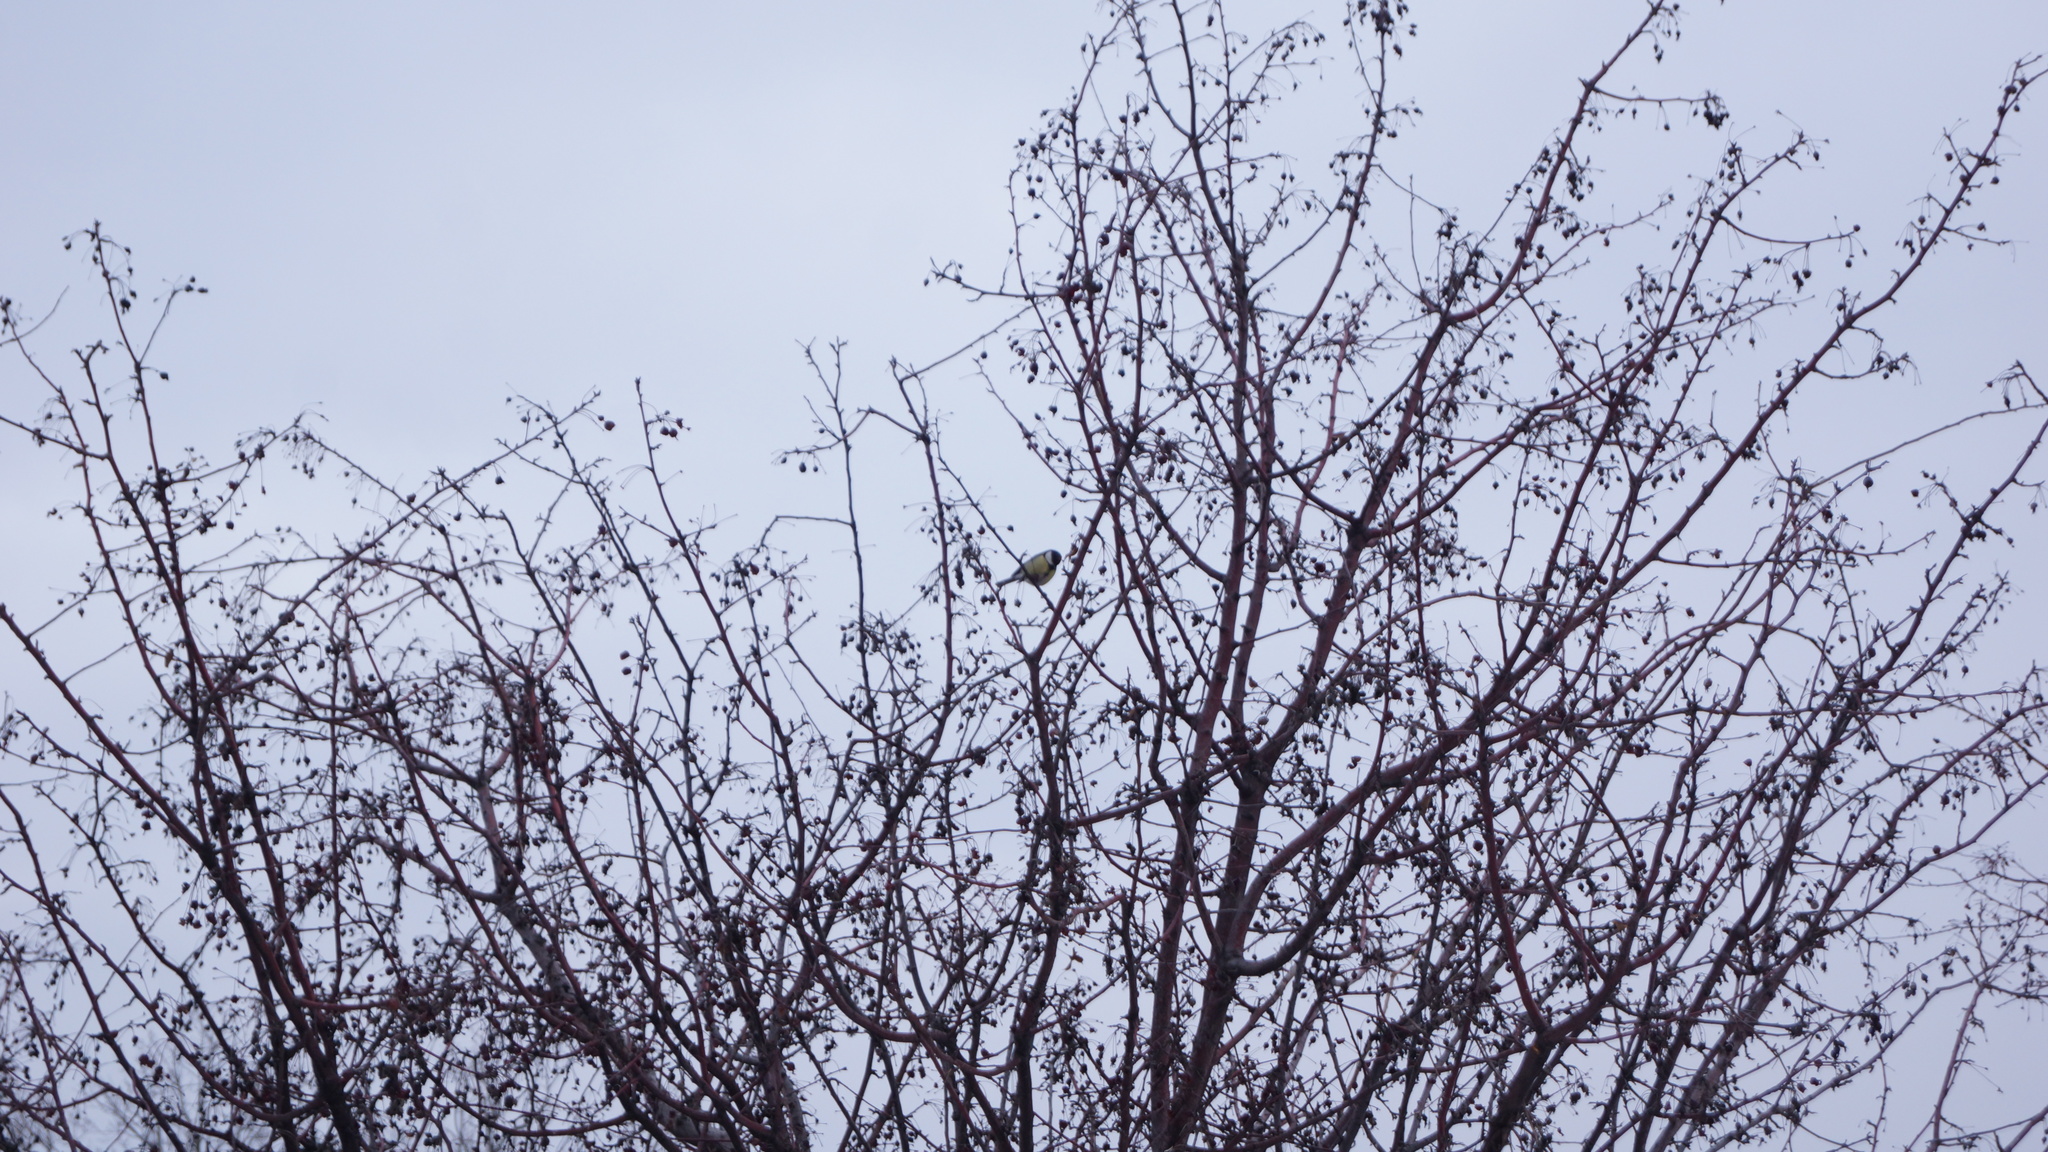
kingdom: Animalia
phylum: Chordata
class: Aves
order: Passeriformes
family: Paridae
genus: Parus
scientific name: Parus major
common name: Great tit
